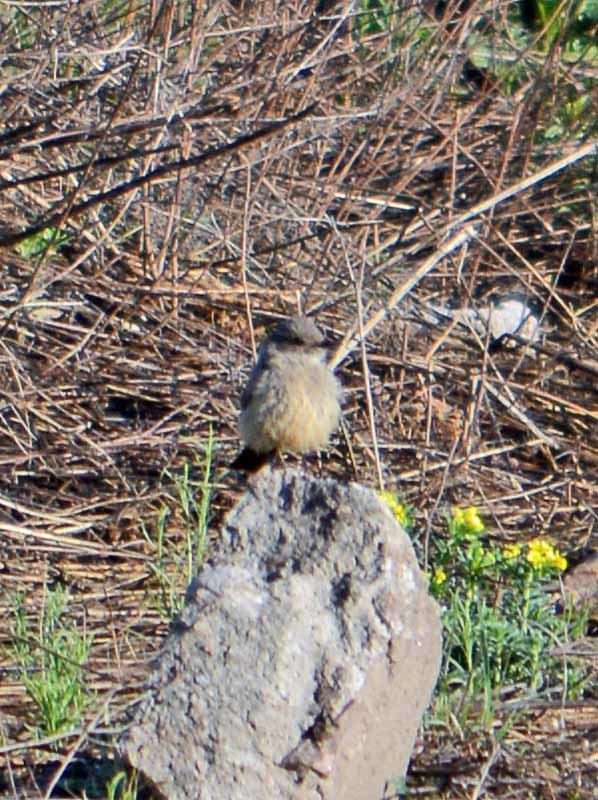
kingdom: Animalia
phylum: Chordata
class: Aves
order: Passeriformes
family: Tyrannidae
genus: Sayornis
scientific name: Sayornis saya
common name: Say's phoebe
